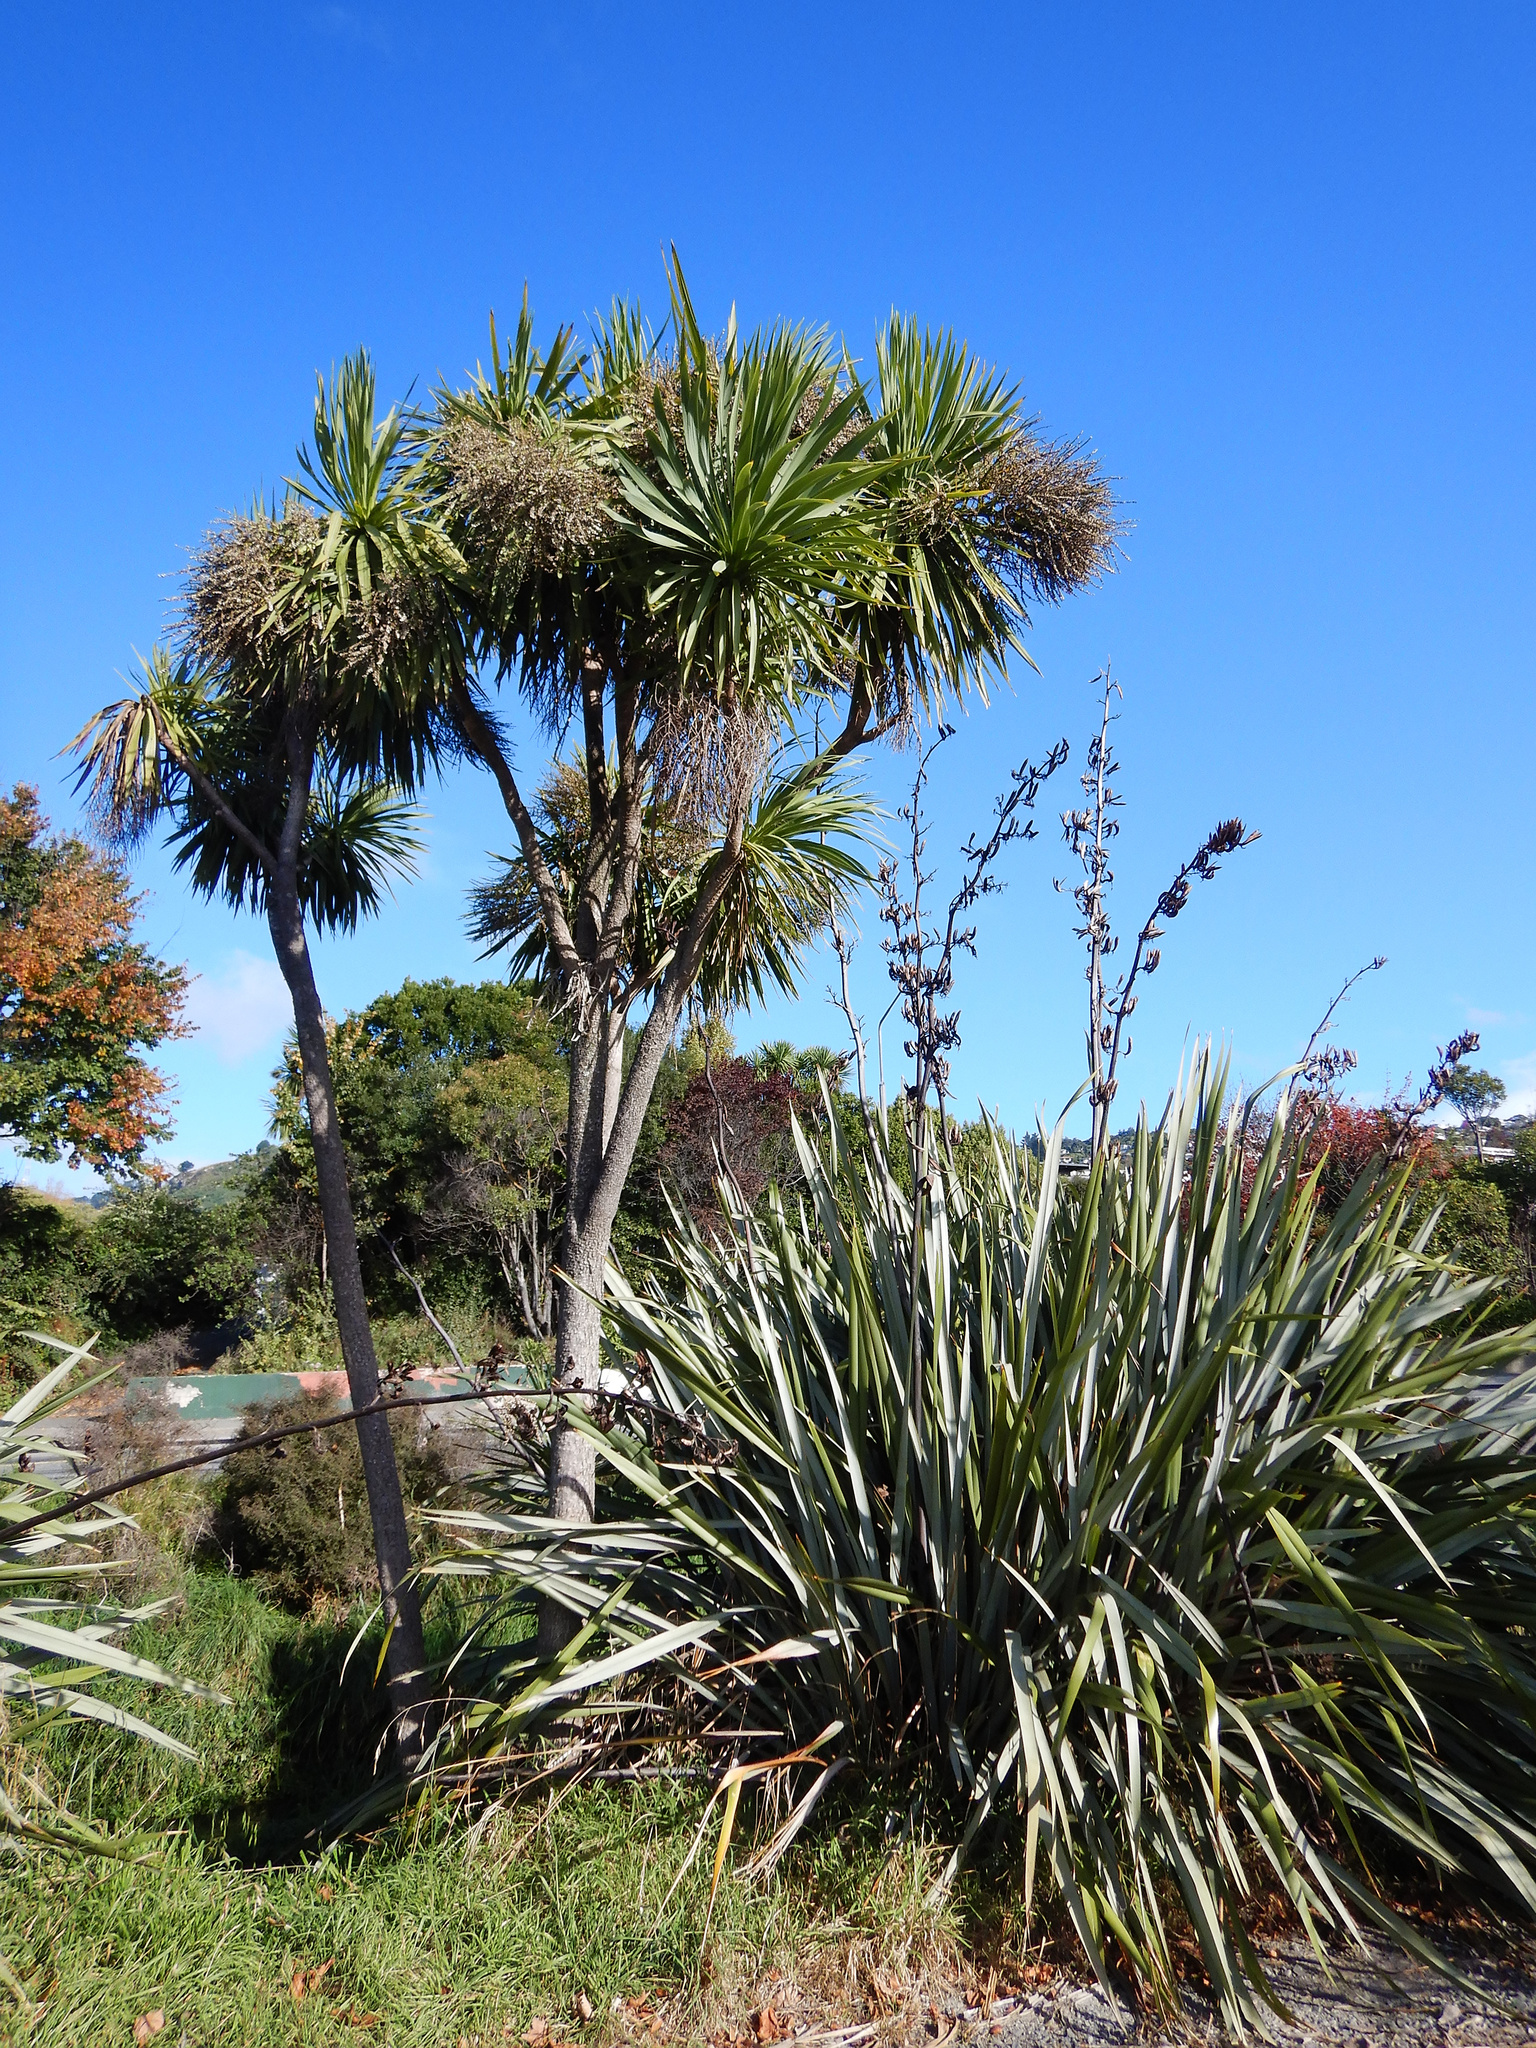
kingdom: Plantae
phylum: Tracheophyta
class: Liliopsida
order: Asparagales
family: Asparagaceae
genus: Cordyline
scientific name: Cordyline australis
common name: Cabbage-palm
